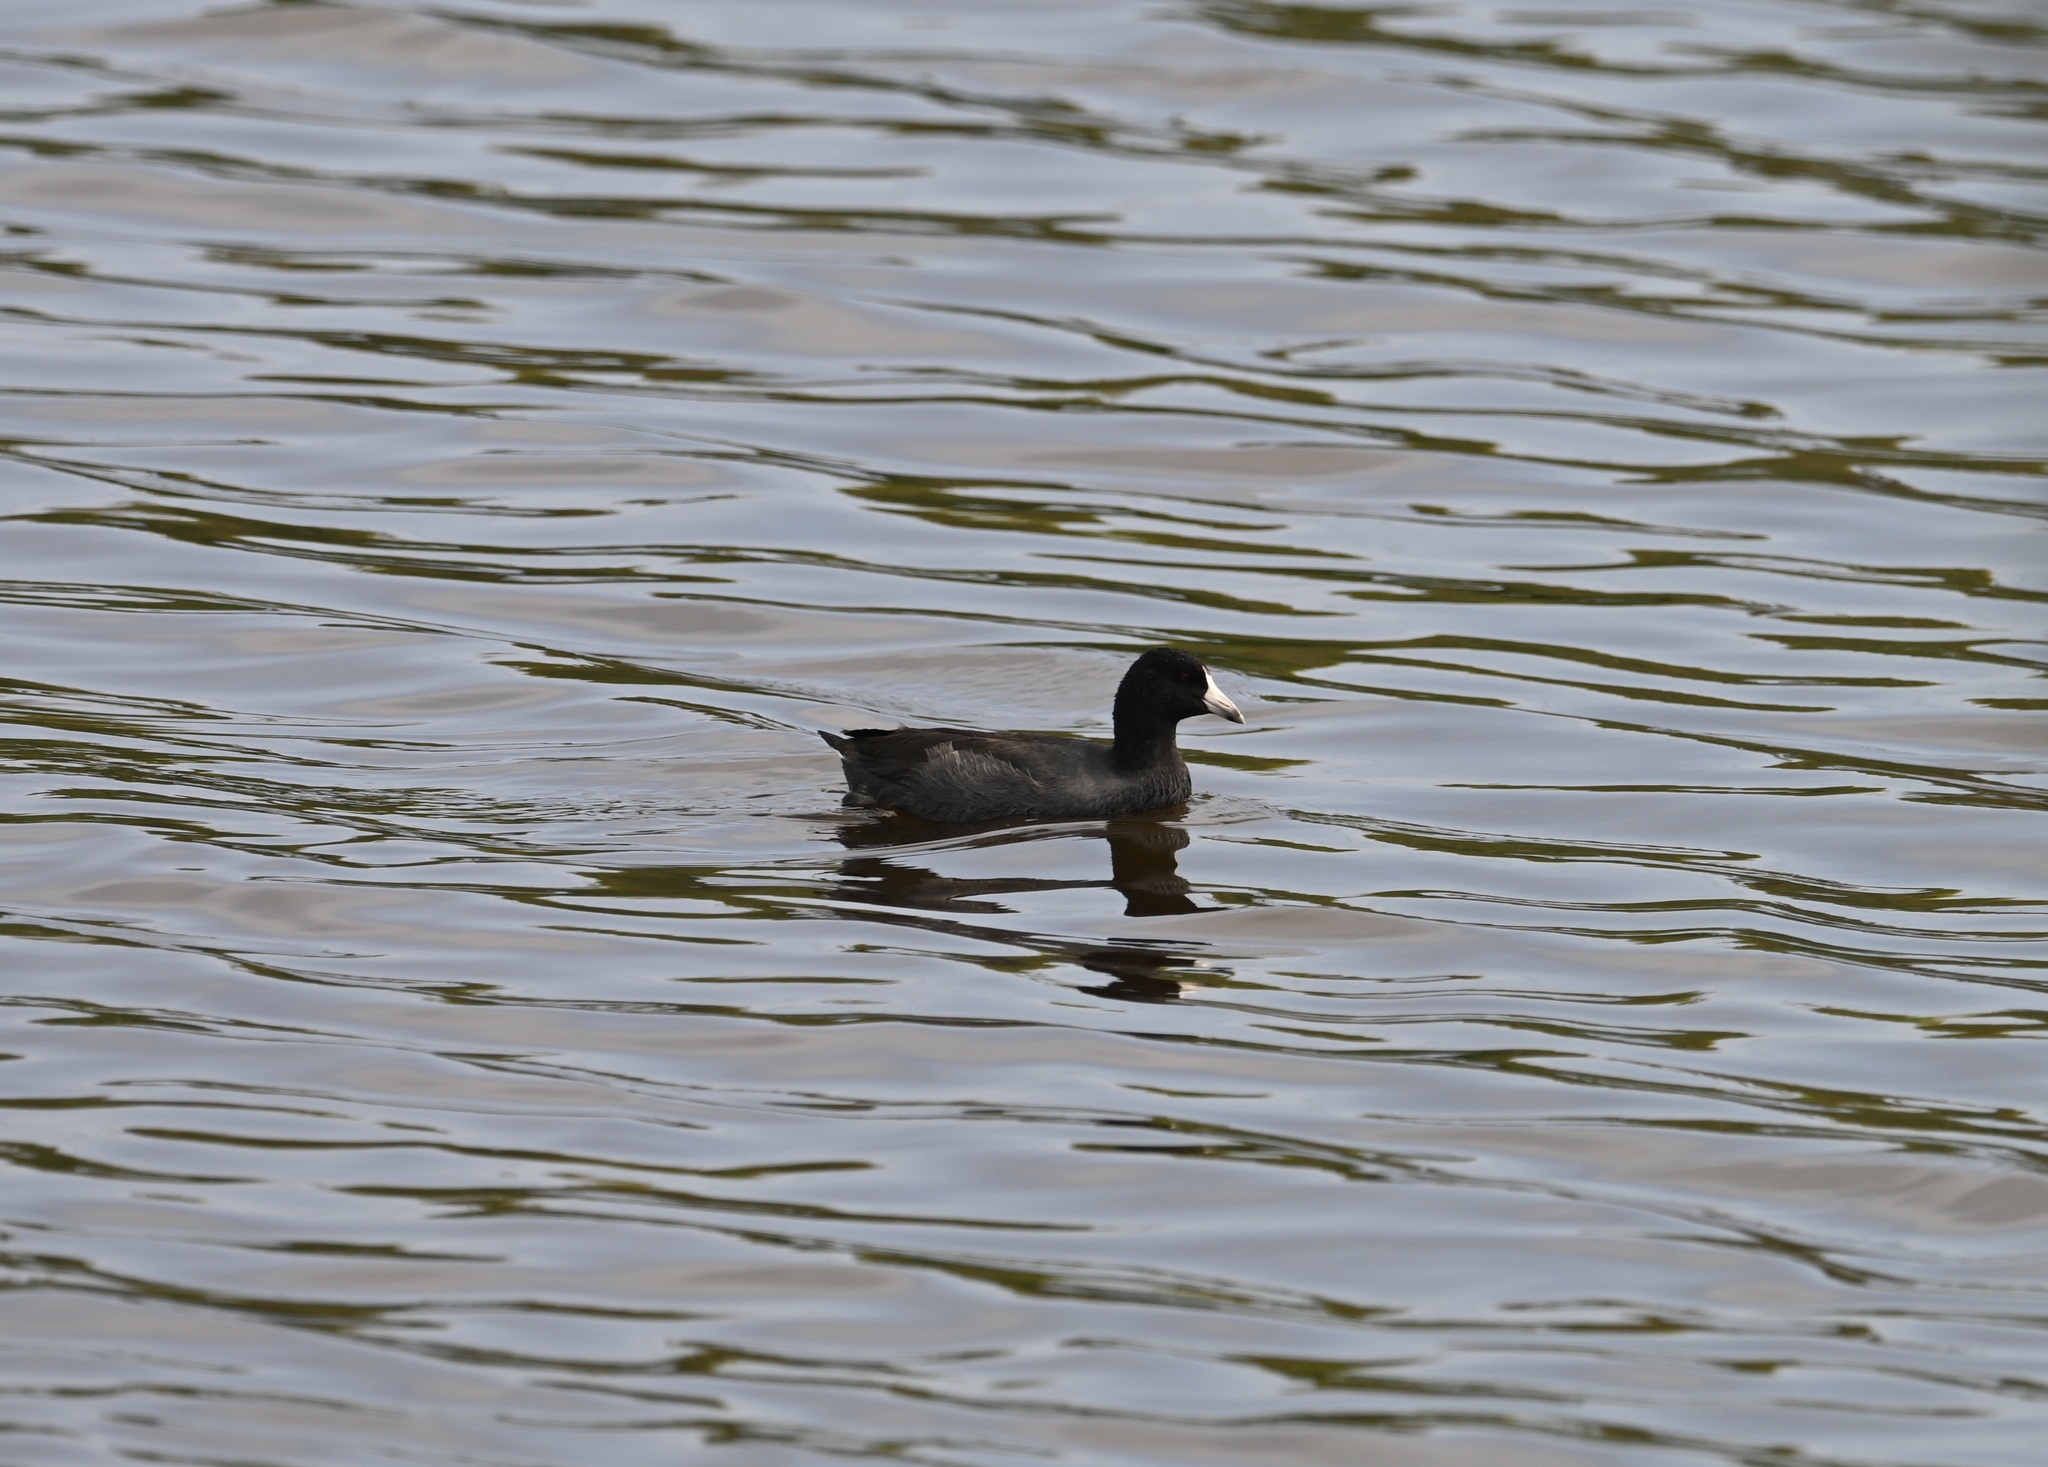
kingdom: Animalia
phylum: Chordata
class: Aves
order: Gruiformes
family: Rallidae
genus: Fulica
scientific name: Fulica americana
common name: American coot
